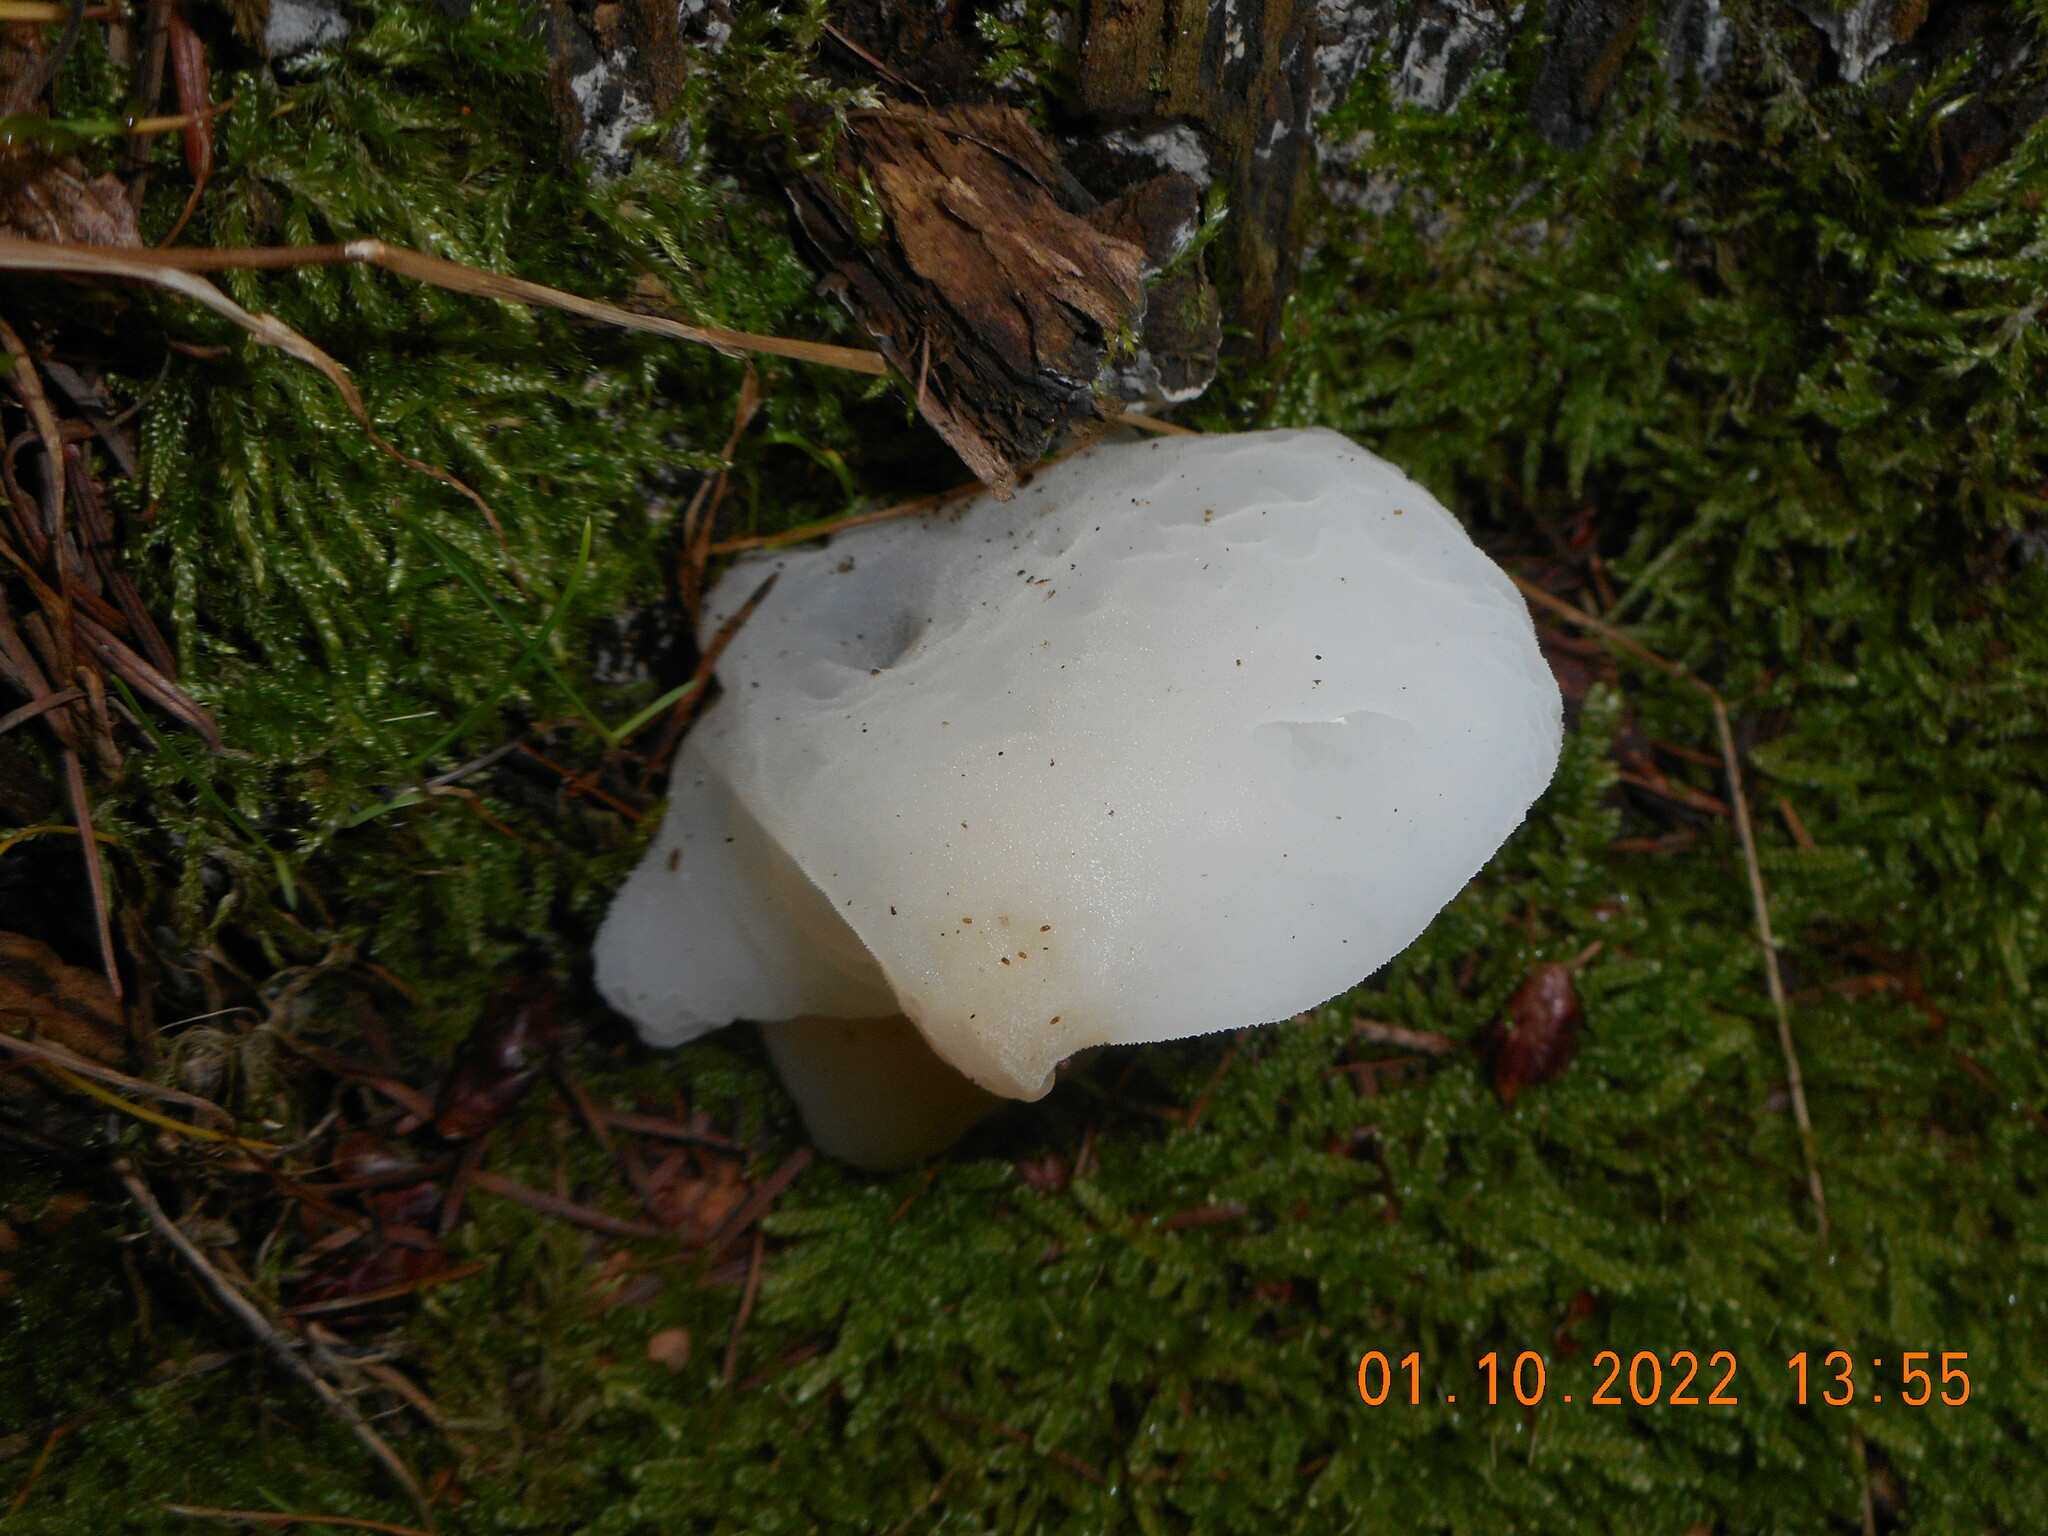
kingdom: Fungi
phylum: Basidiomycota
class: Agaricomycetes
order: Auriculariales
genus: Pseudohydnum
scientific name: Pseudohydnum gelatinosum
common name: Jelly tongue
